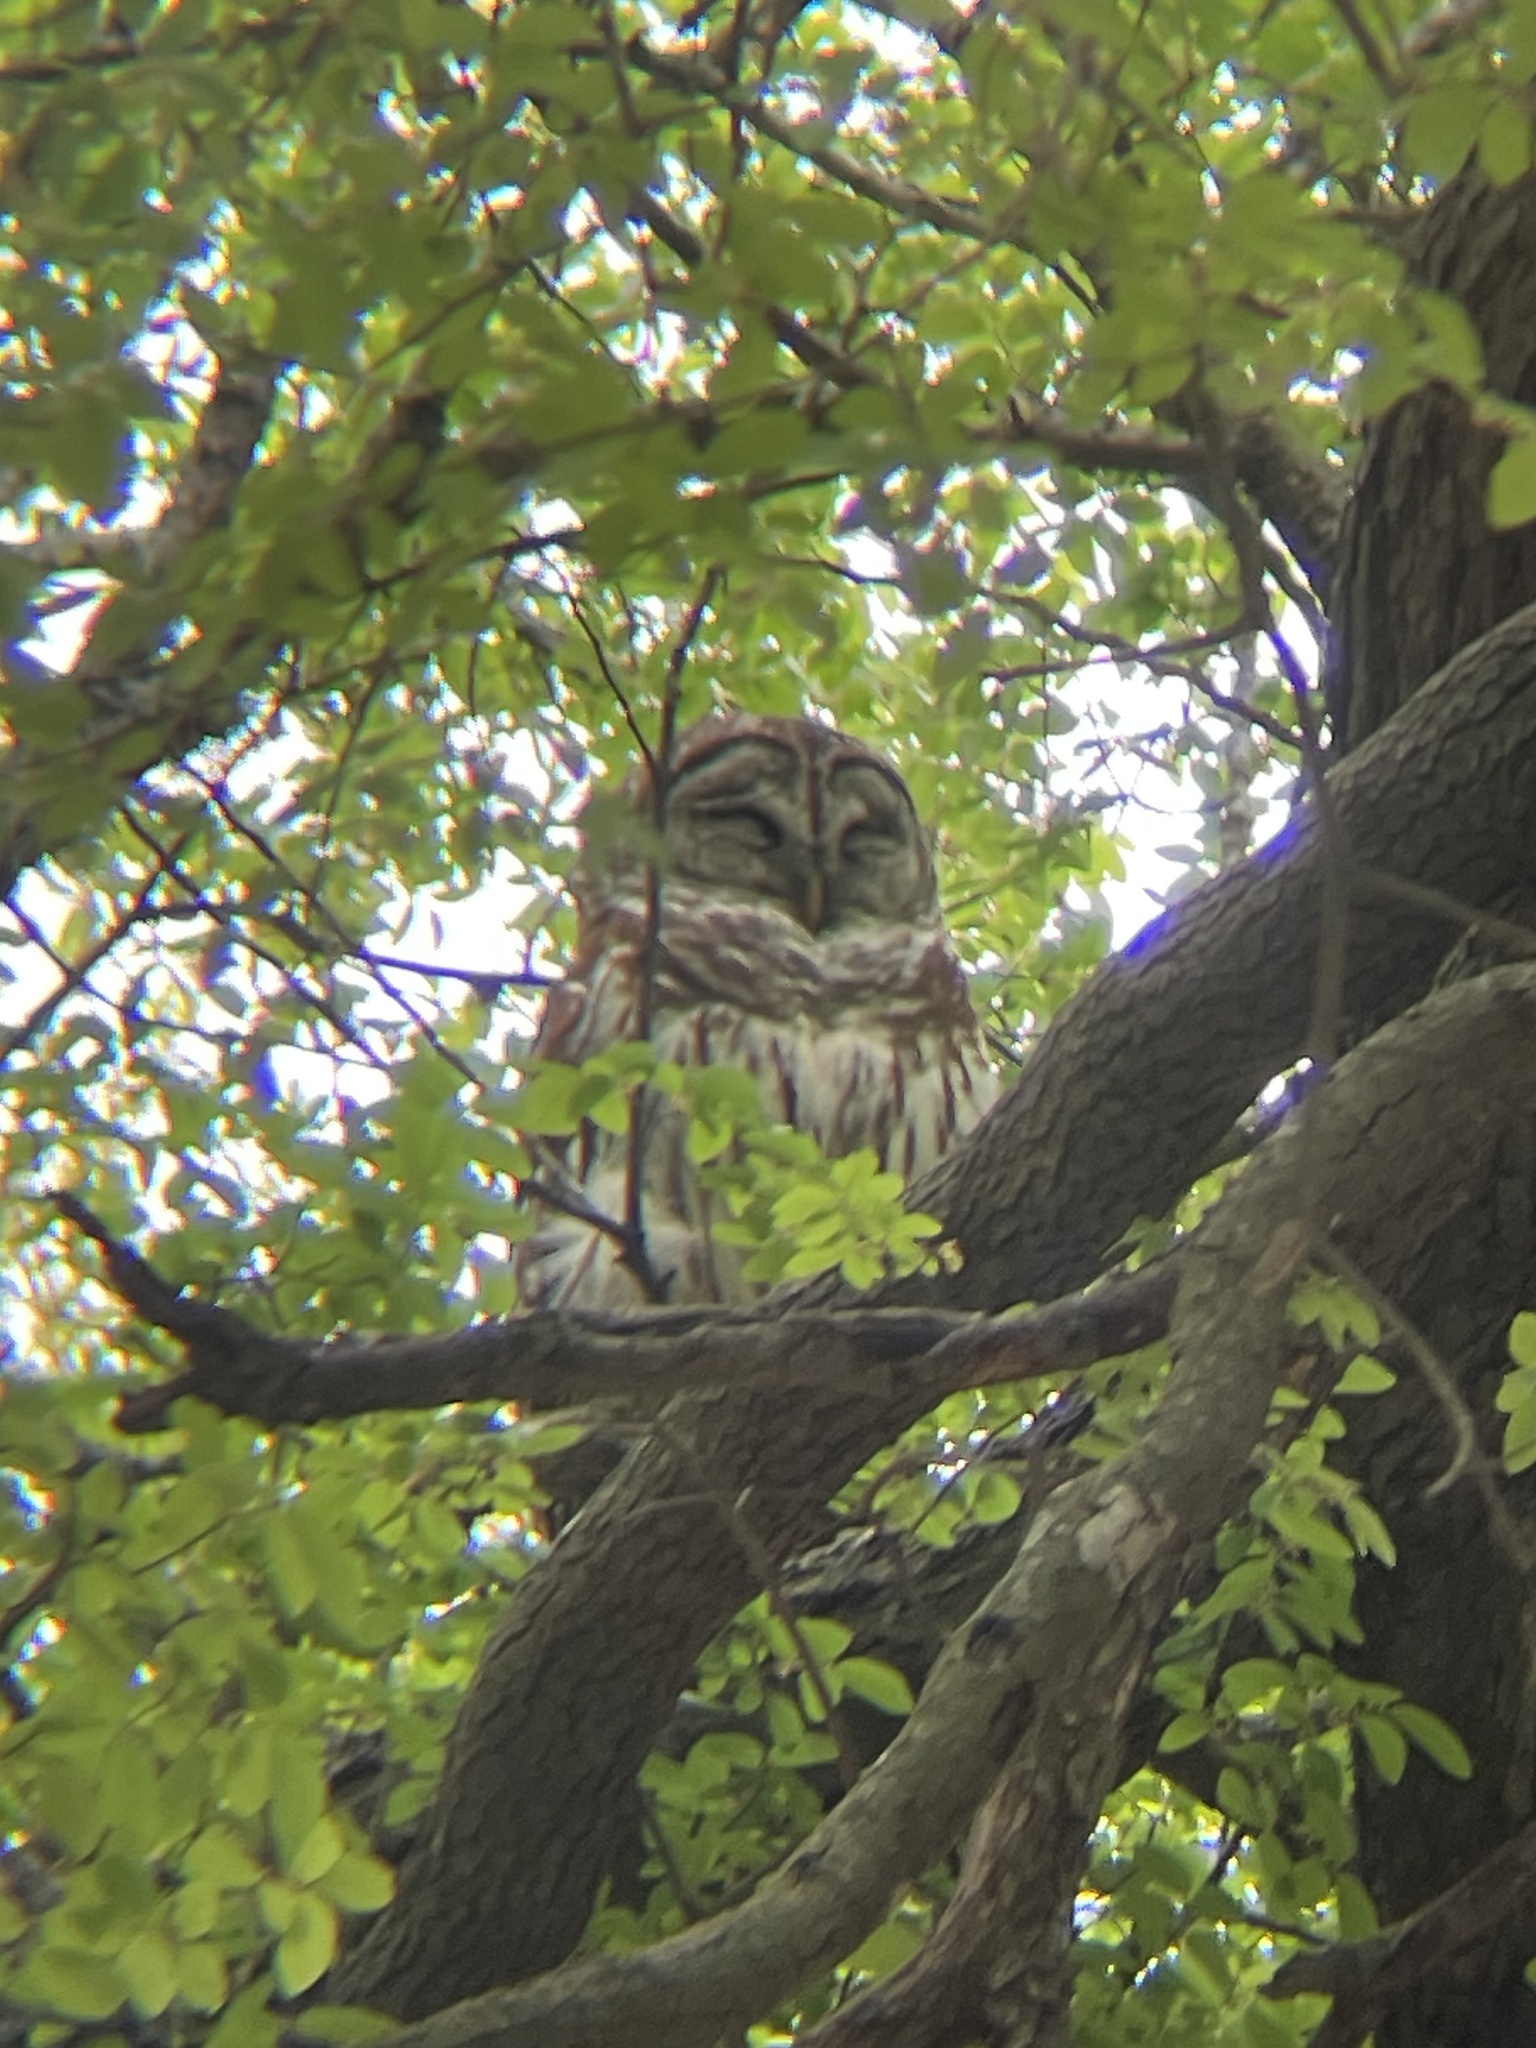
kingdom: Animalia
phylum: Chordata
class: Aves
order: Strigiformes
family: Strigidae
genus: Strix
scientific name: Strix varia
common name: Barred owl
